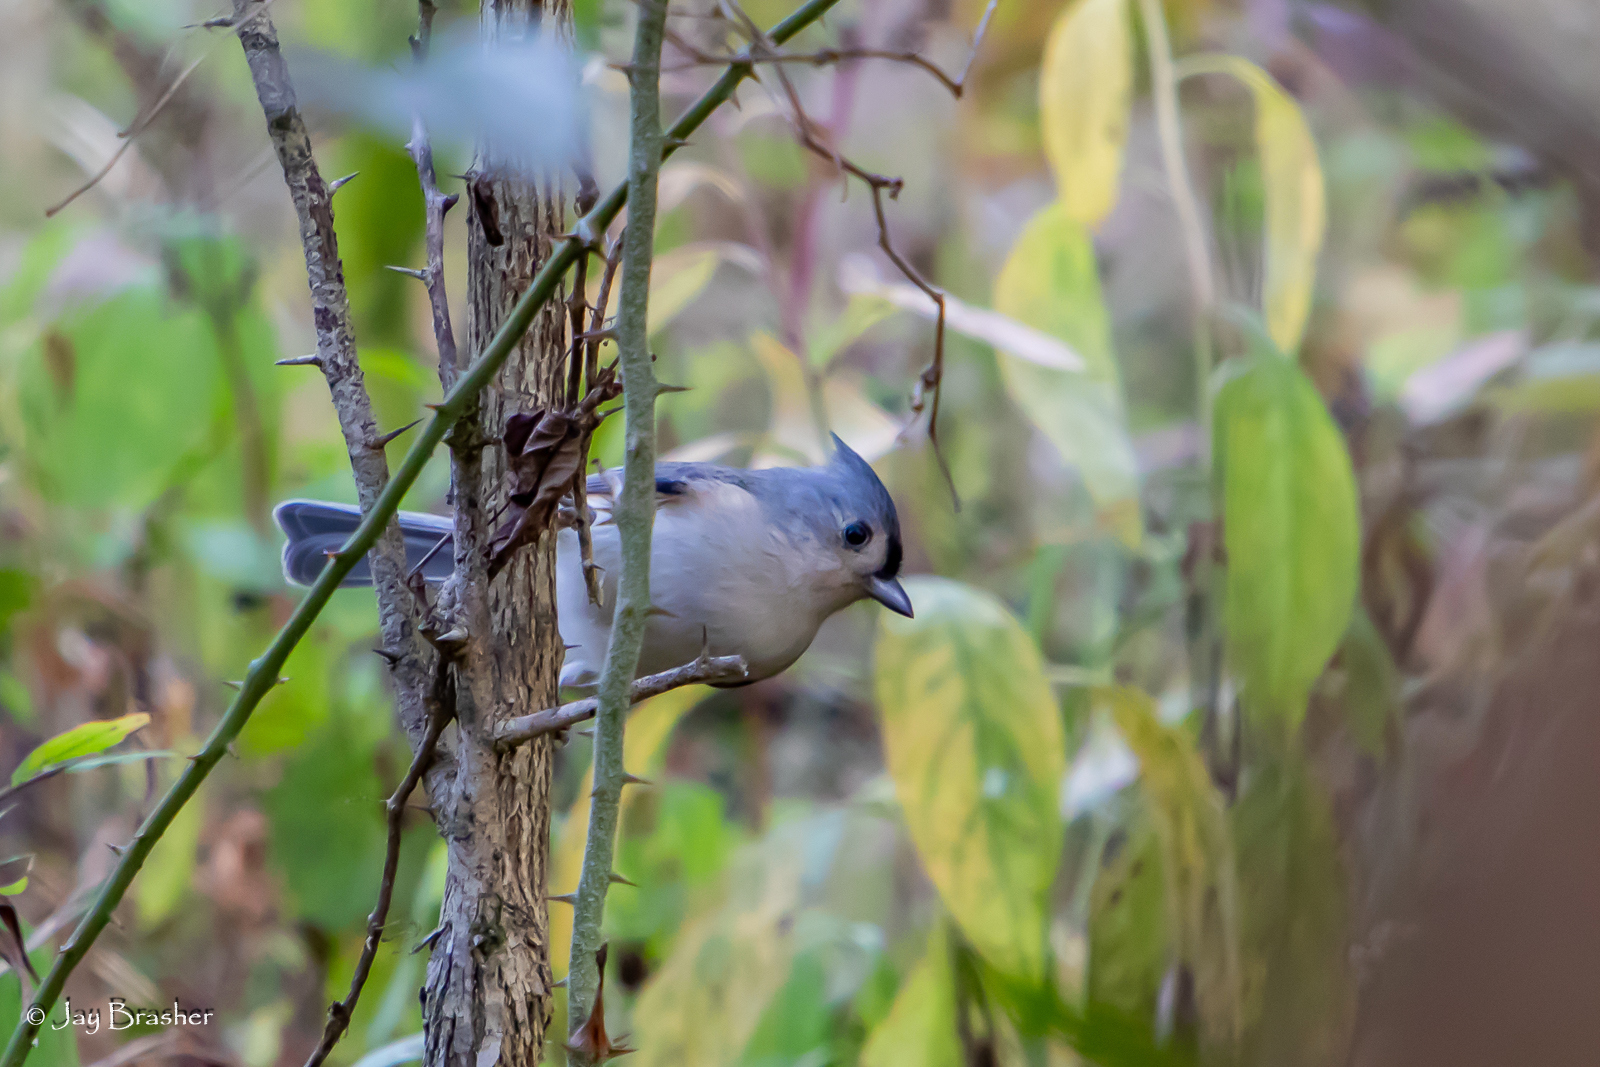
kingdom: Animalia
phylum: Chordata
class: Aves
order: Passeriformes
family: Paridae
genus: Baeolophus
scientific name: Baeolophus bicolor
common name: Tufted titmouse
